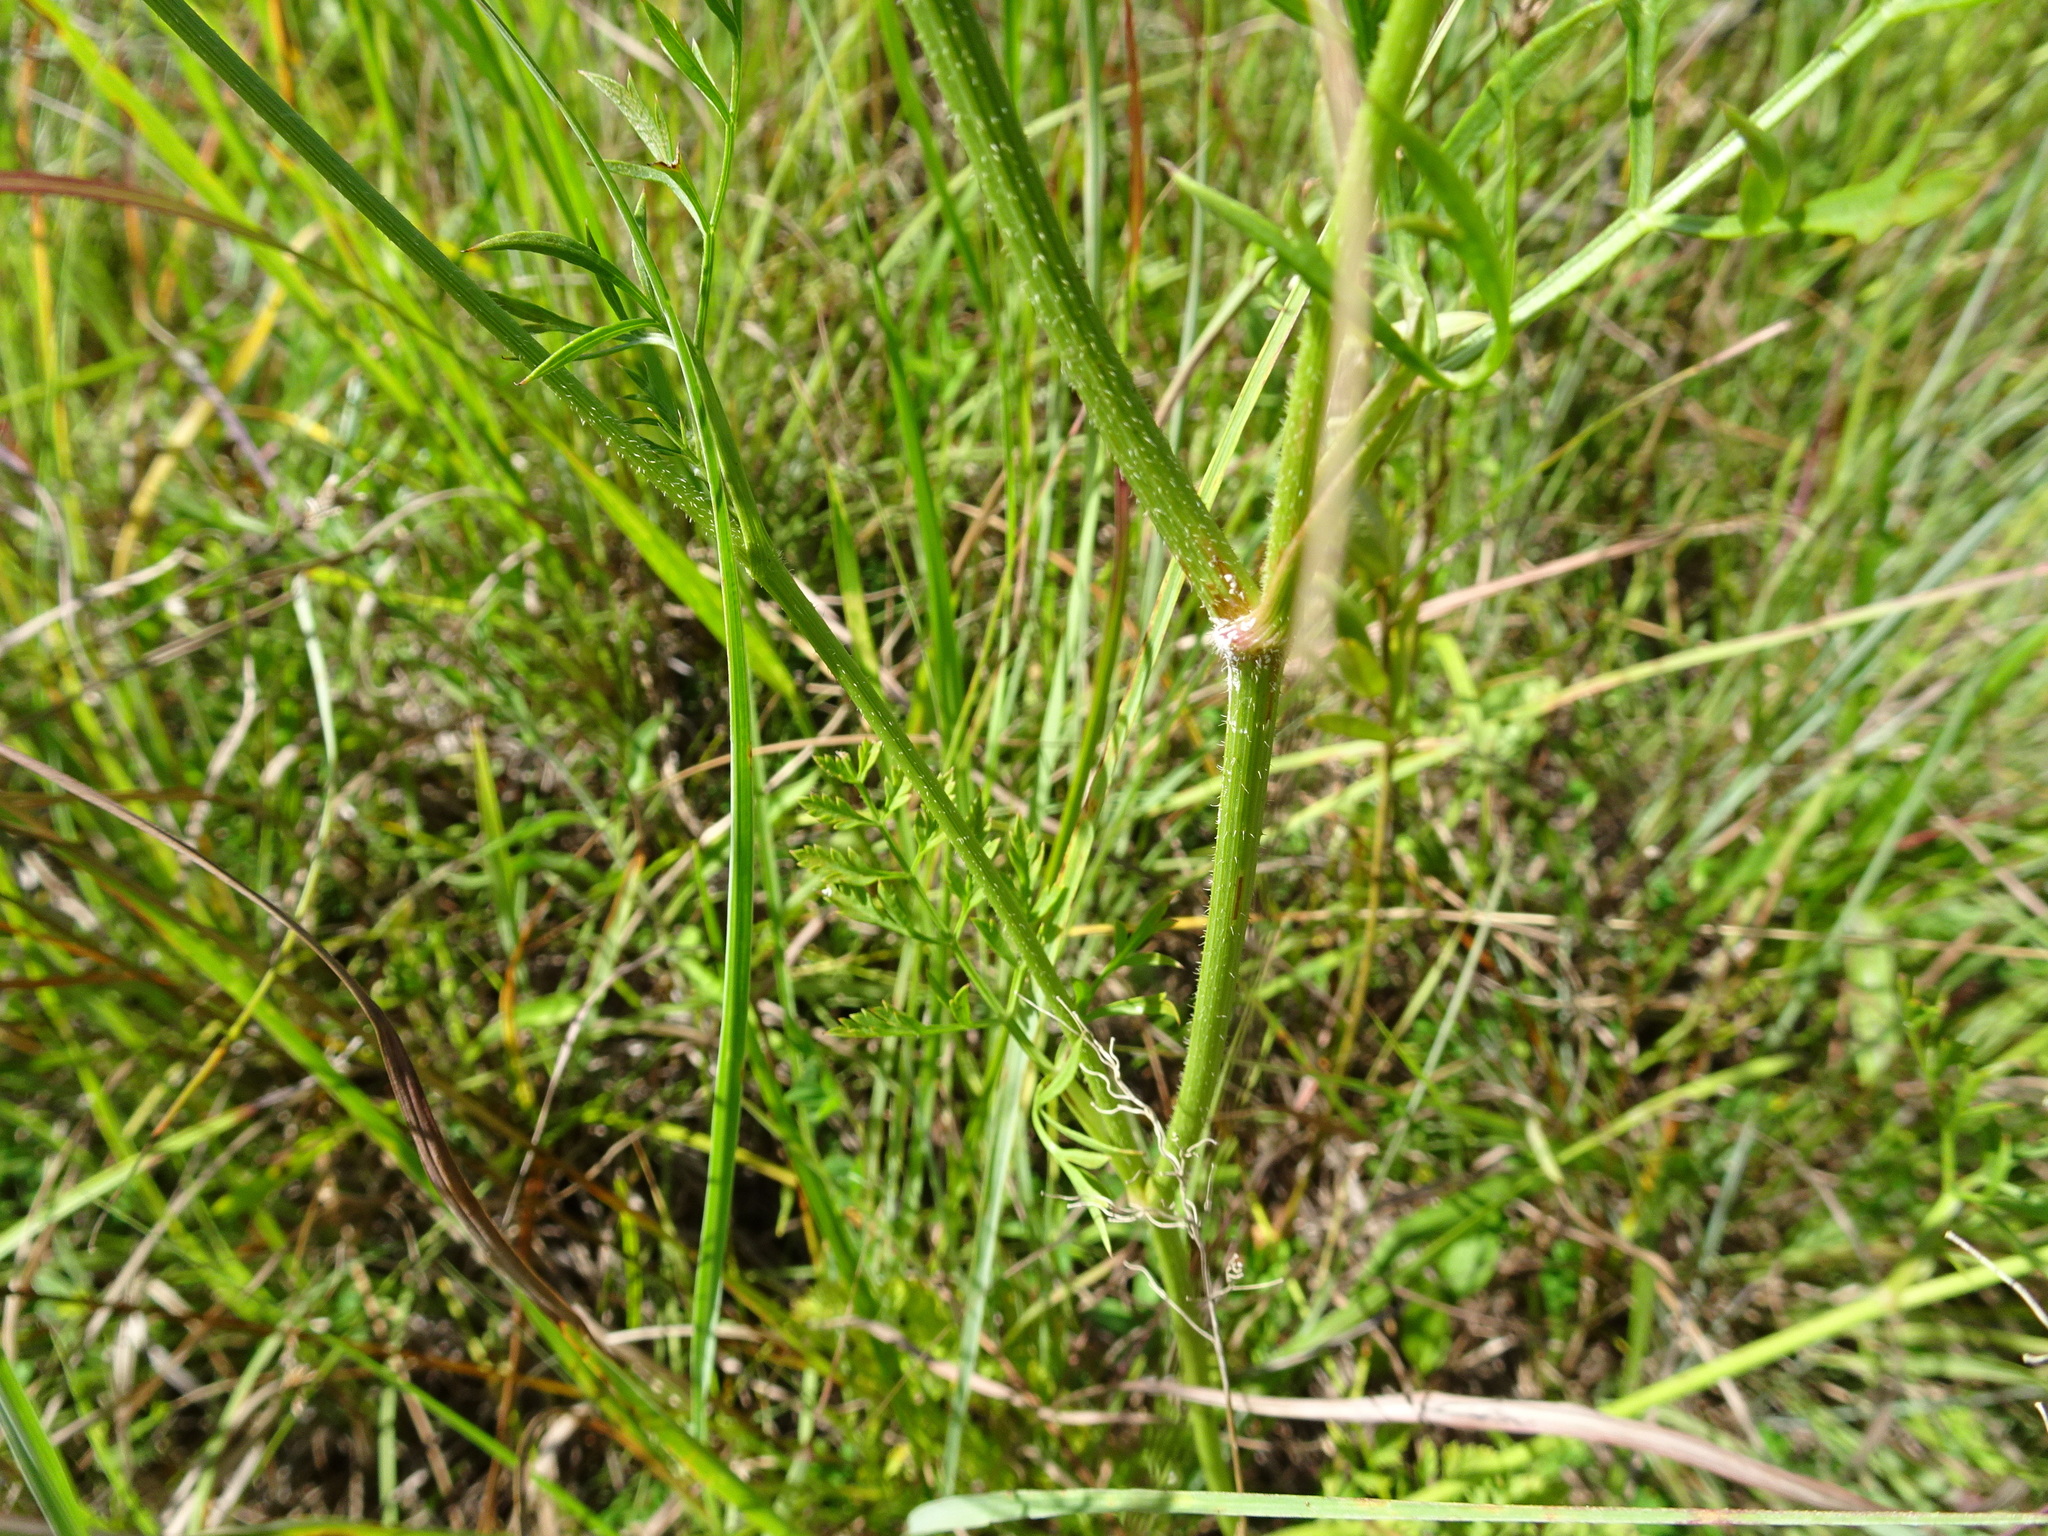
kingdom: Plantae
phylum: Tracheophyta
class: Magnoliopsida
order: Apiales
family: Apiaceae
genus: Daucus
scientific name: Daucus carota
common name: Wild carrot
